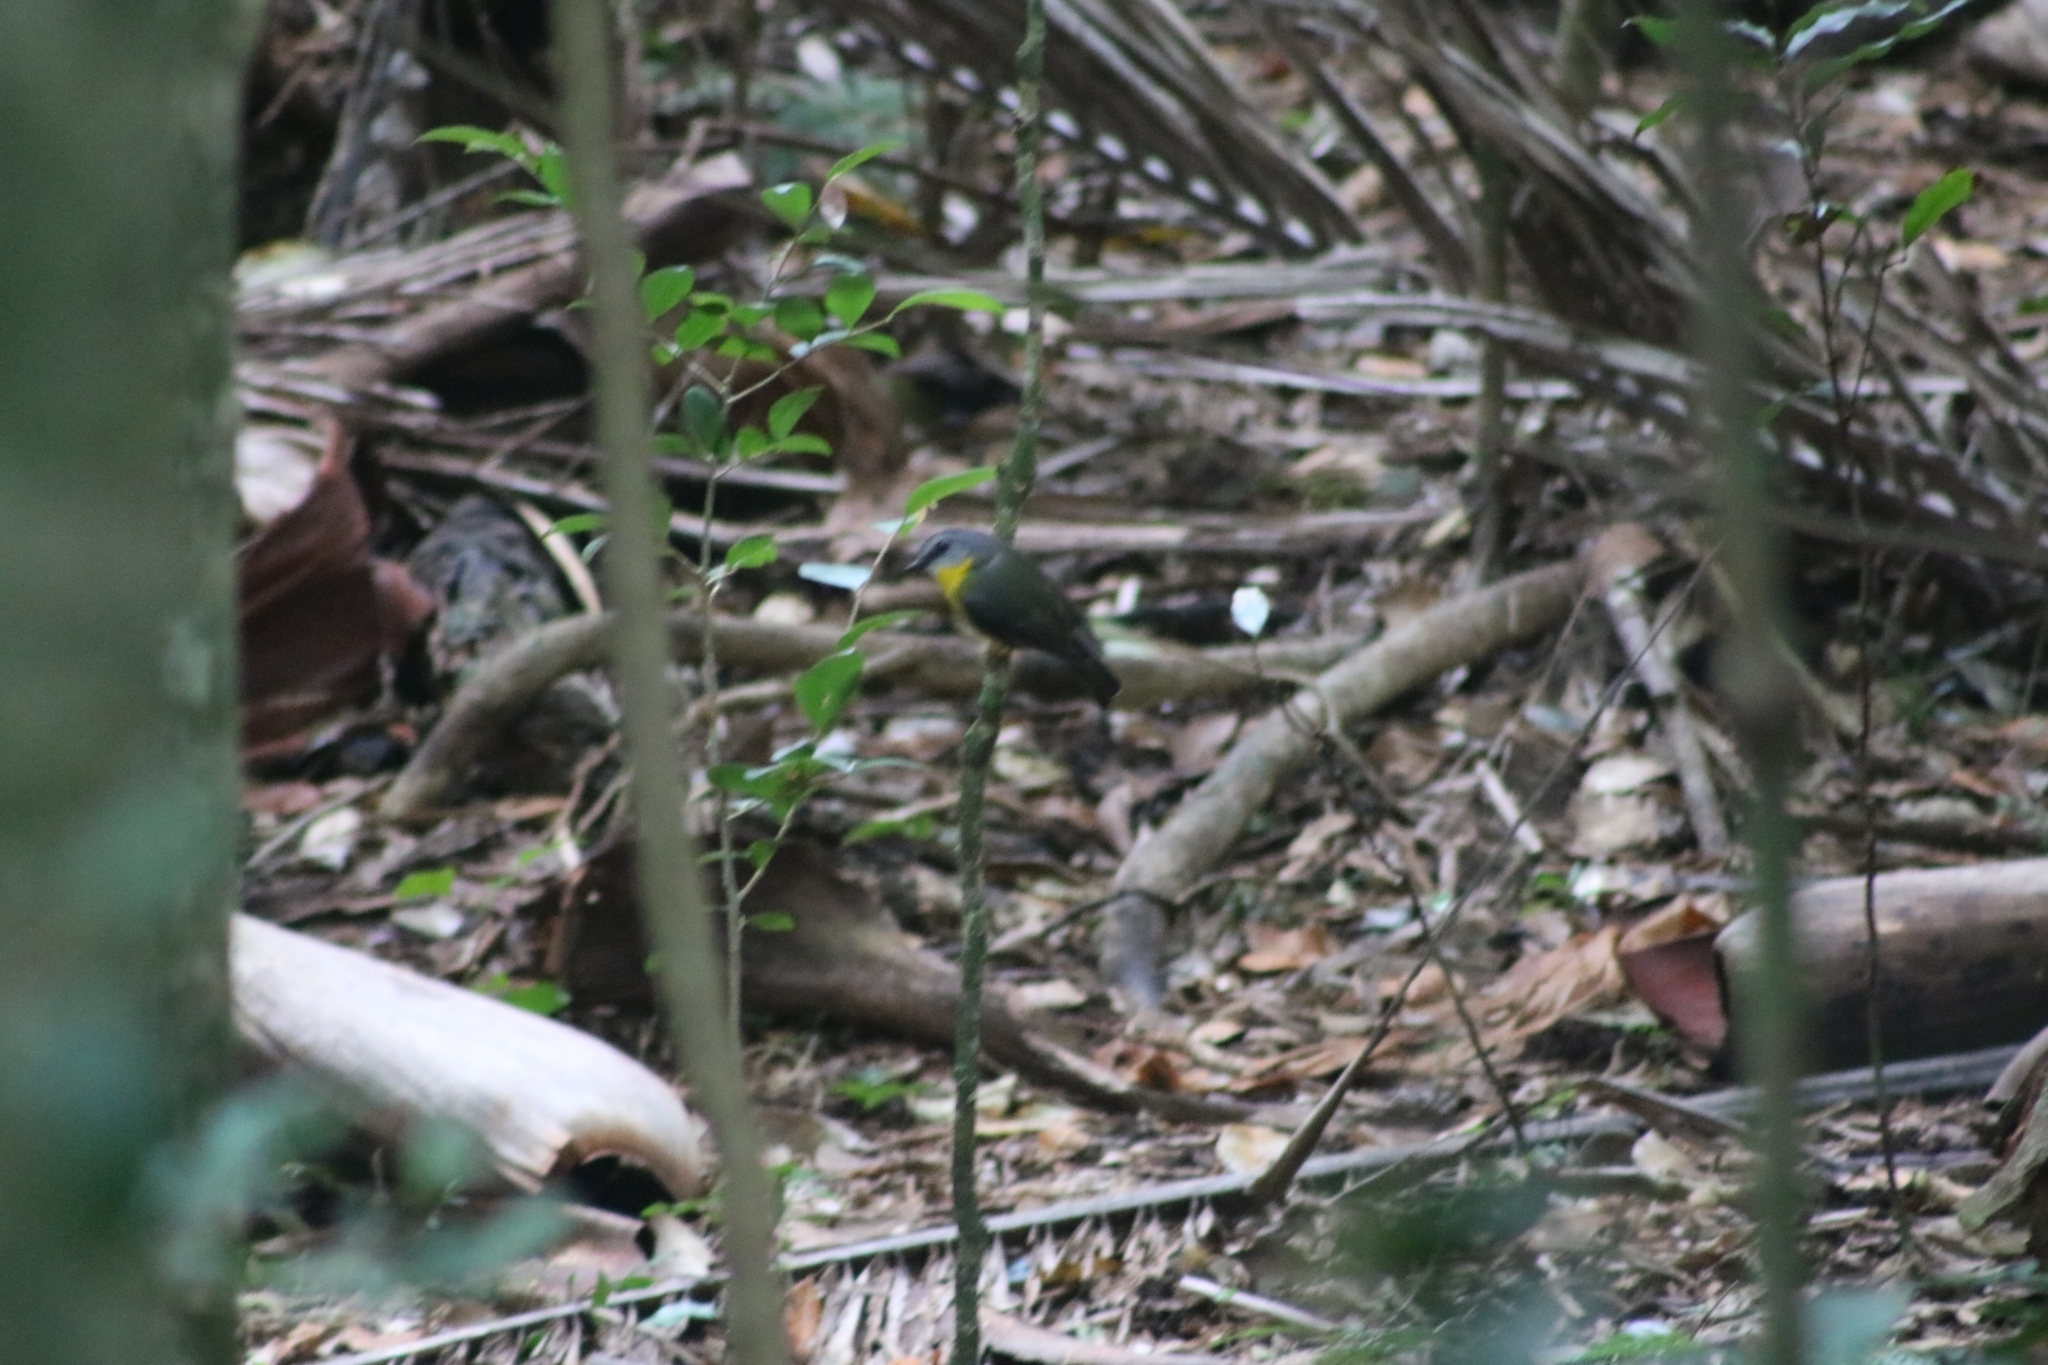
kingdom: Animalia
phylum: Chordata
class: Aves
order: Passeriformes
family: Petroicidae
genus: Eopsaltria
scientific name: Eopsaltria australis
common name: Eastern yellow robin
